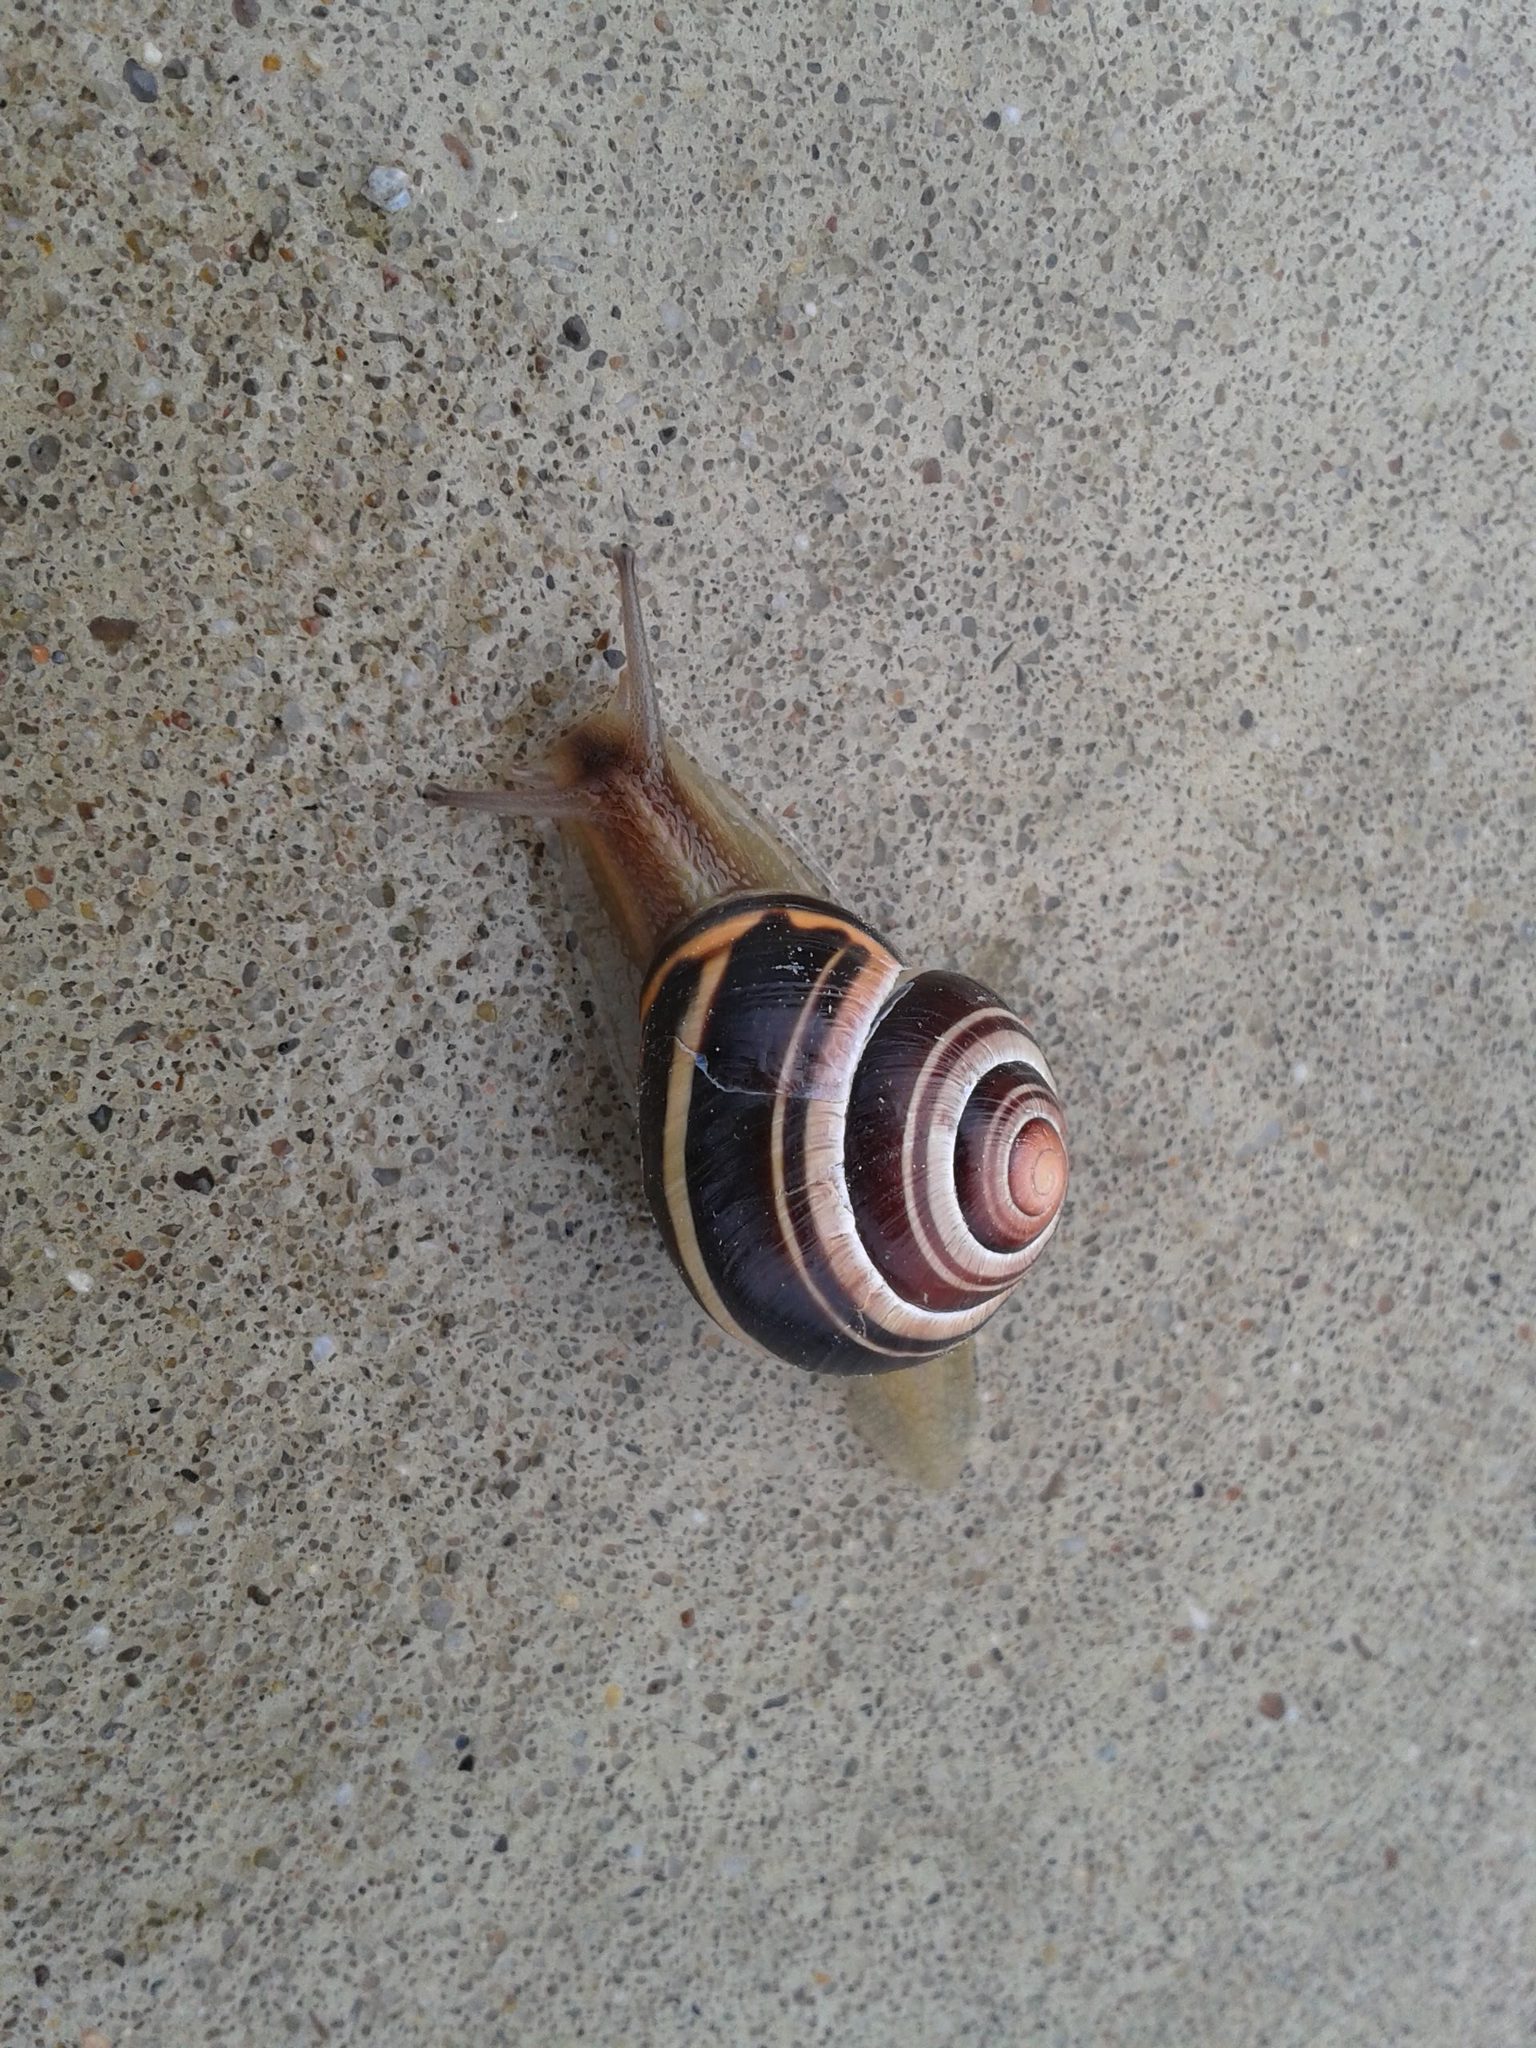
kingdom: Animalia
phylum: Mollusca
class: Gastropoda
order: Stylommatophora
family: Helicidae
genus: Cepaea
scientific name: Cepaea nemoralis
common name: Grovesnail
